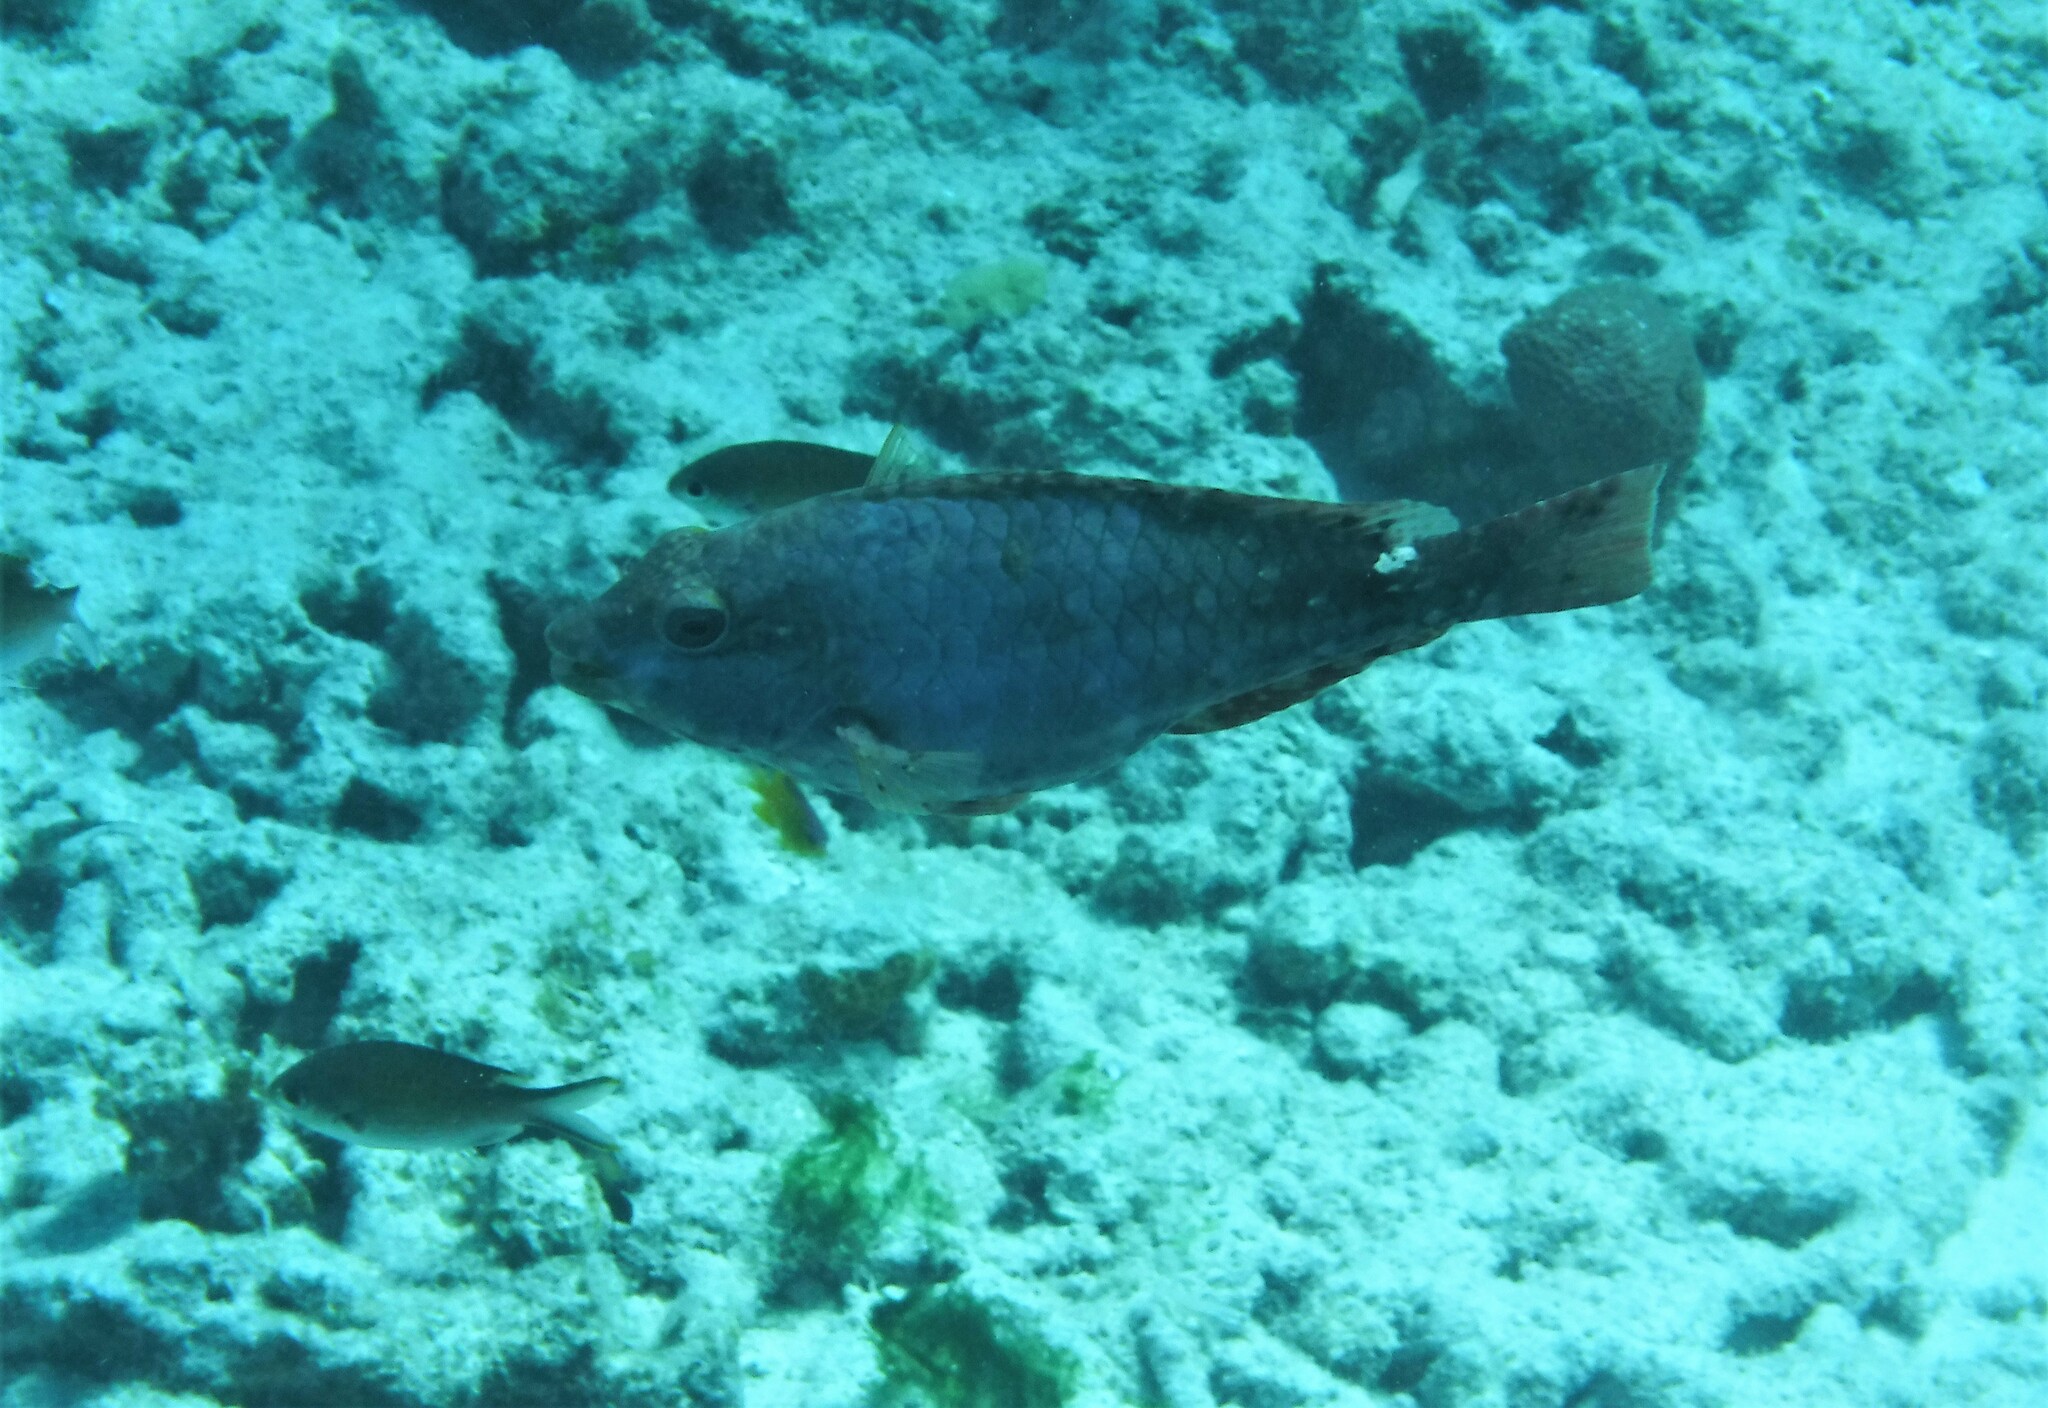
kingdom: Animalia
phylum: Chordata
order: Perciformes
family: Scaridae
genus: Sparisoma
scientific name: Sparisoma aurofrenatum
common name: Redband parrotfish
